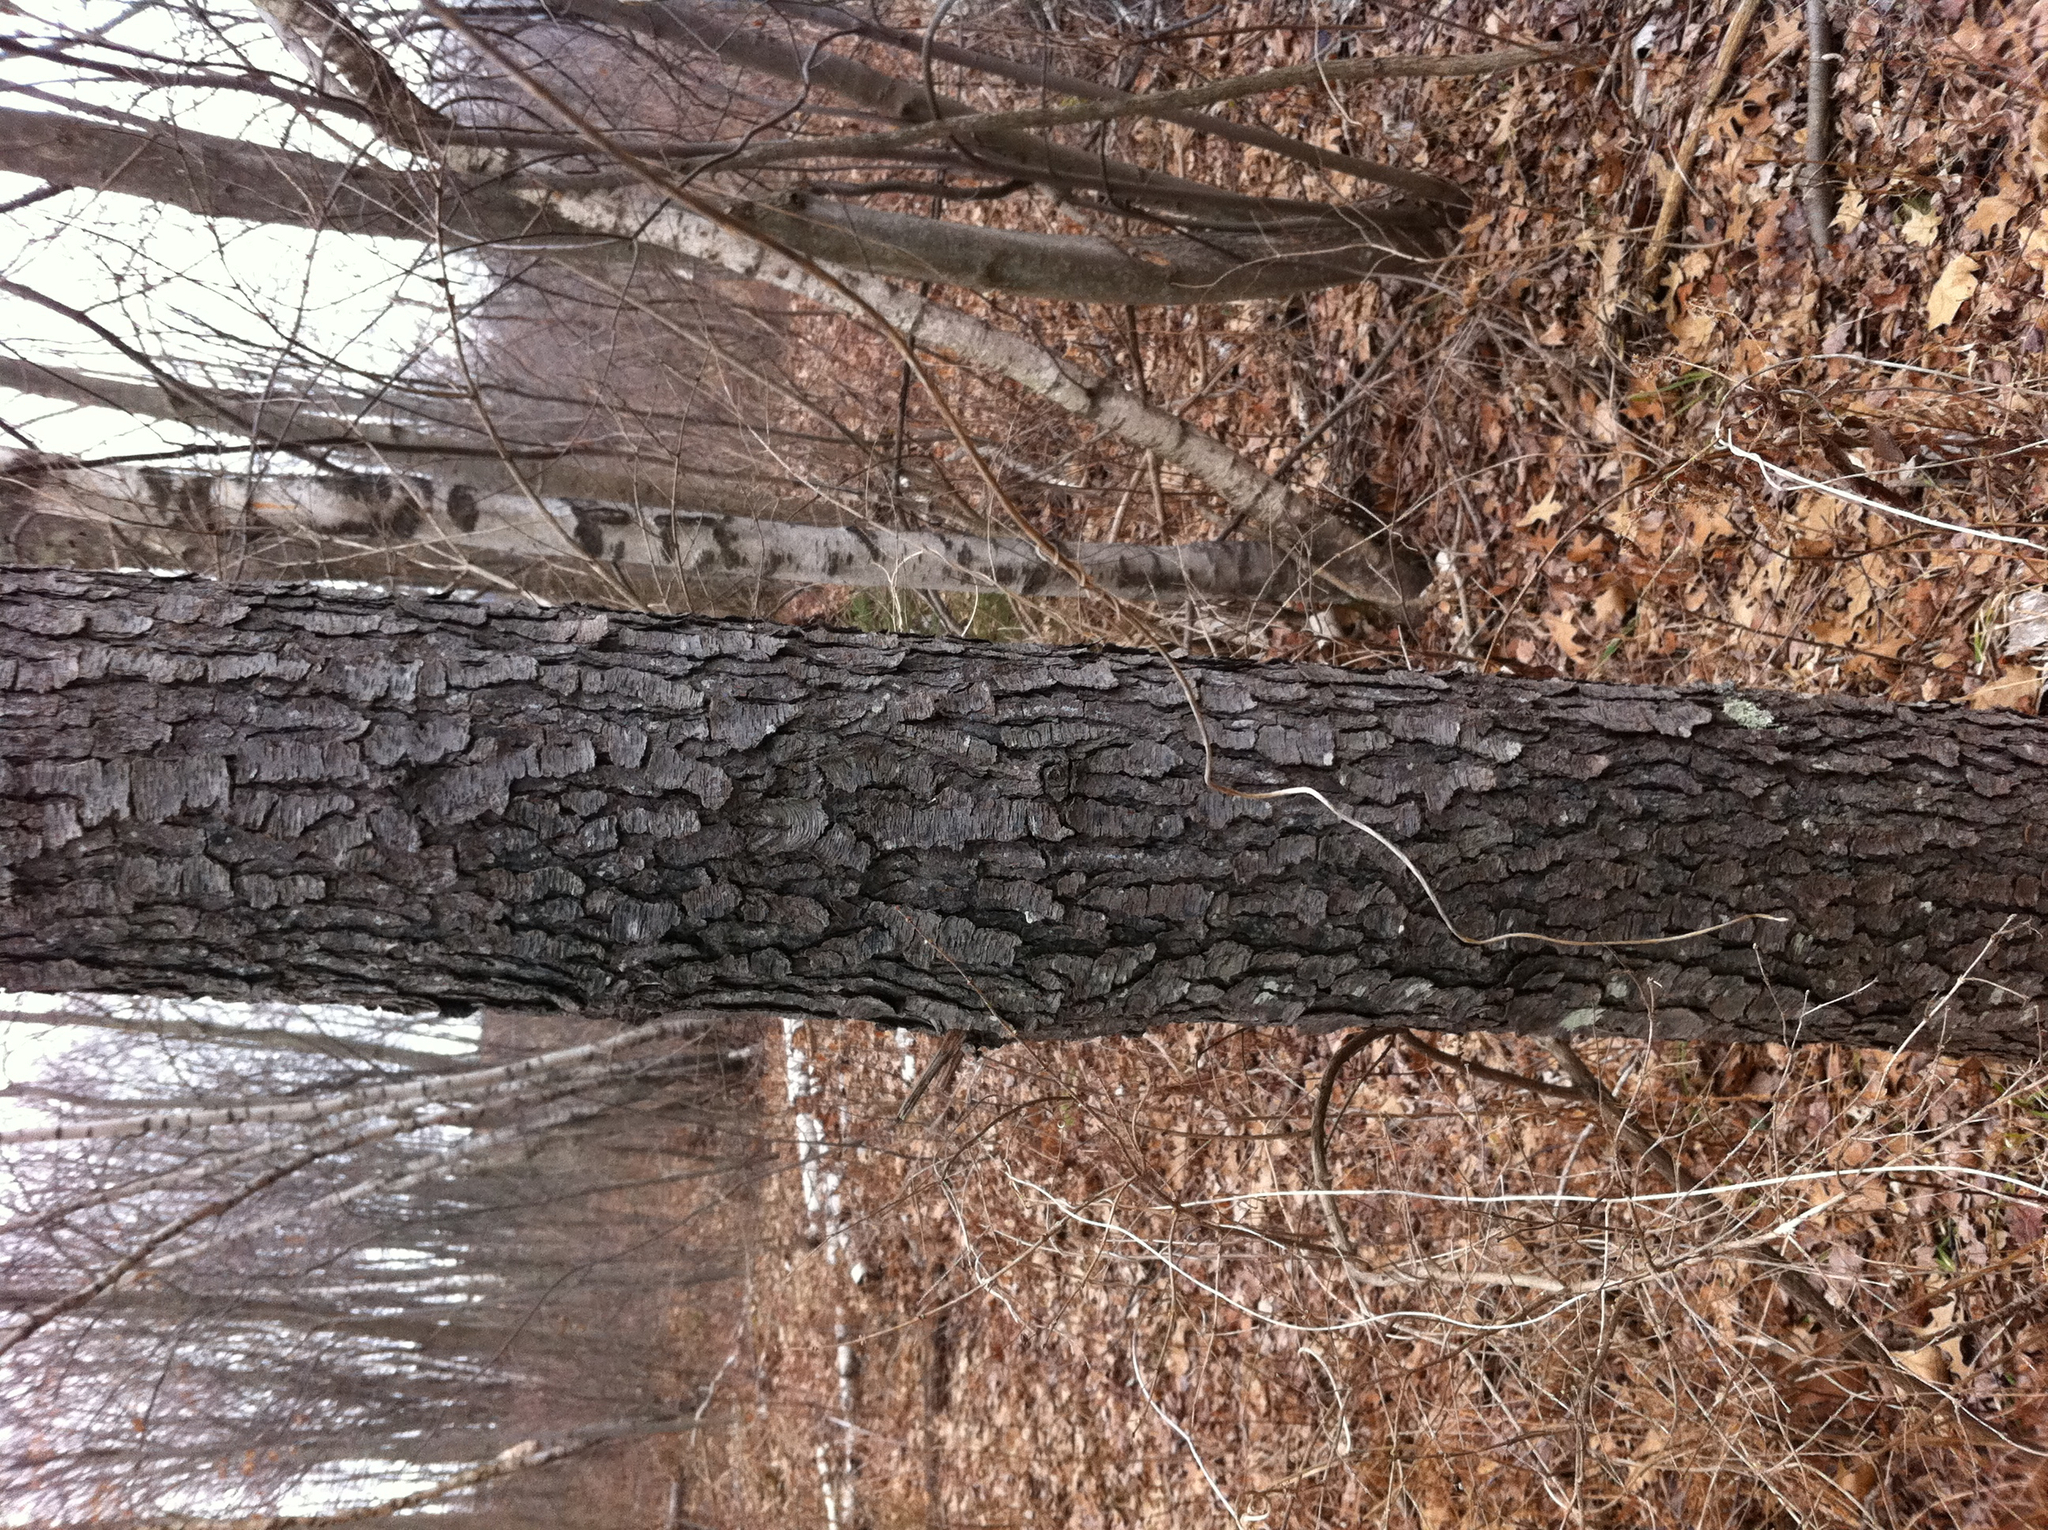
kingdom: Plantae
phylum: Tracheophyta
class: Magnoliopsida
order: Rosales
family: Rosaceae
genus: Prunus
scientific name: Prunus serotina
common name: Black cherry
